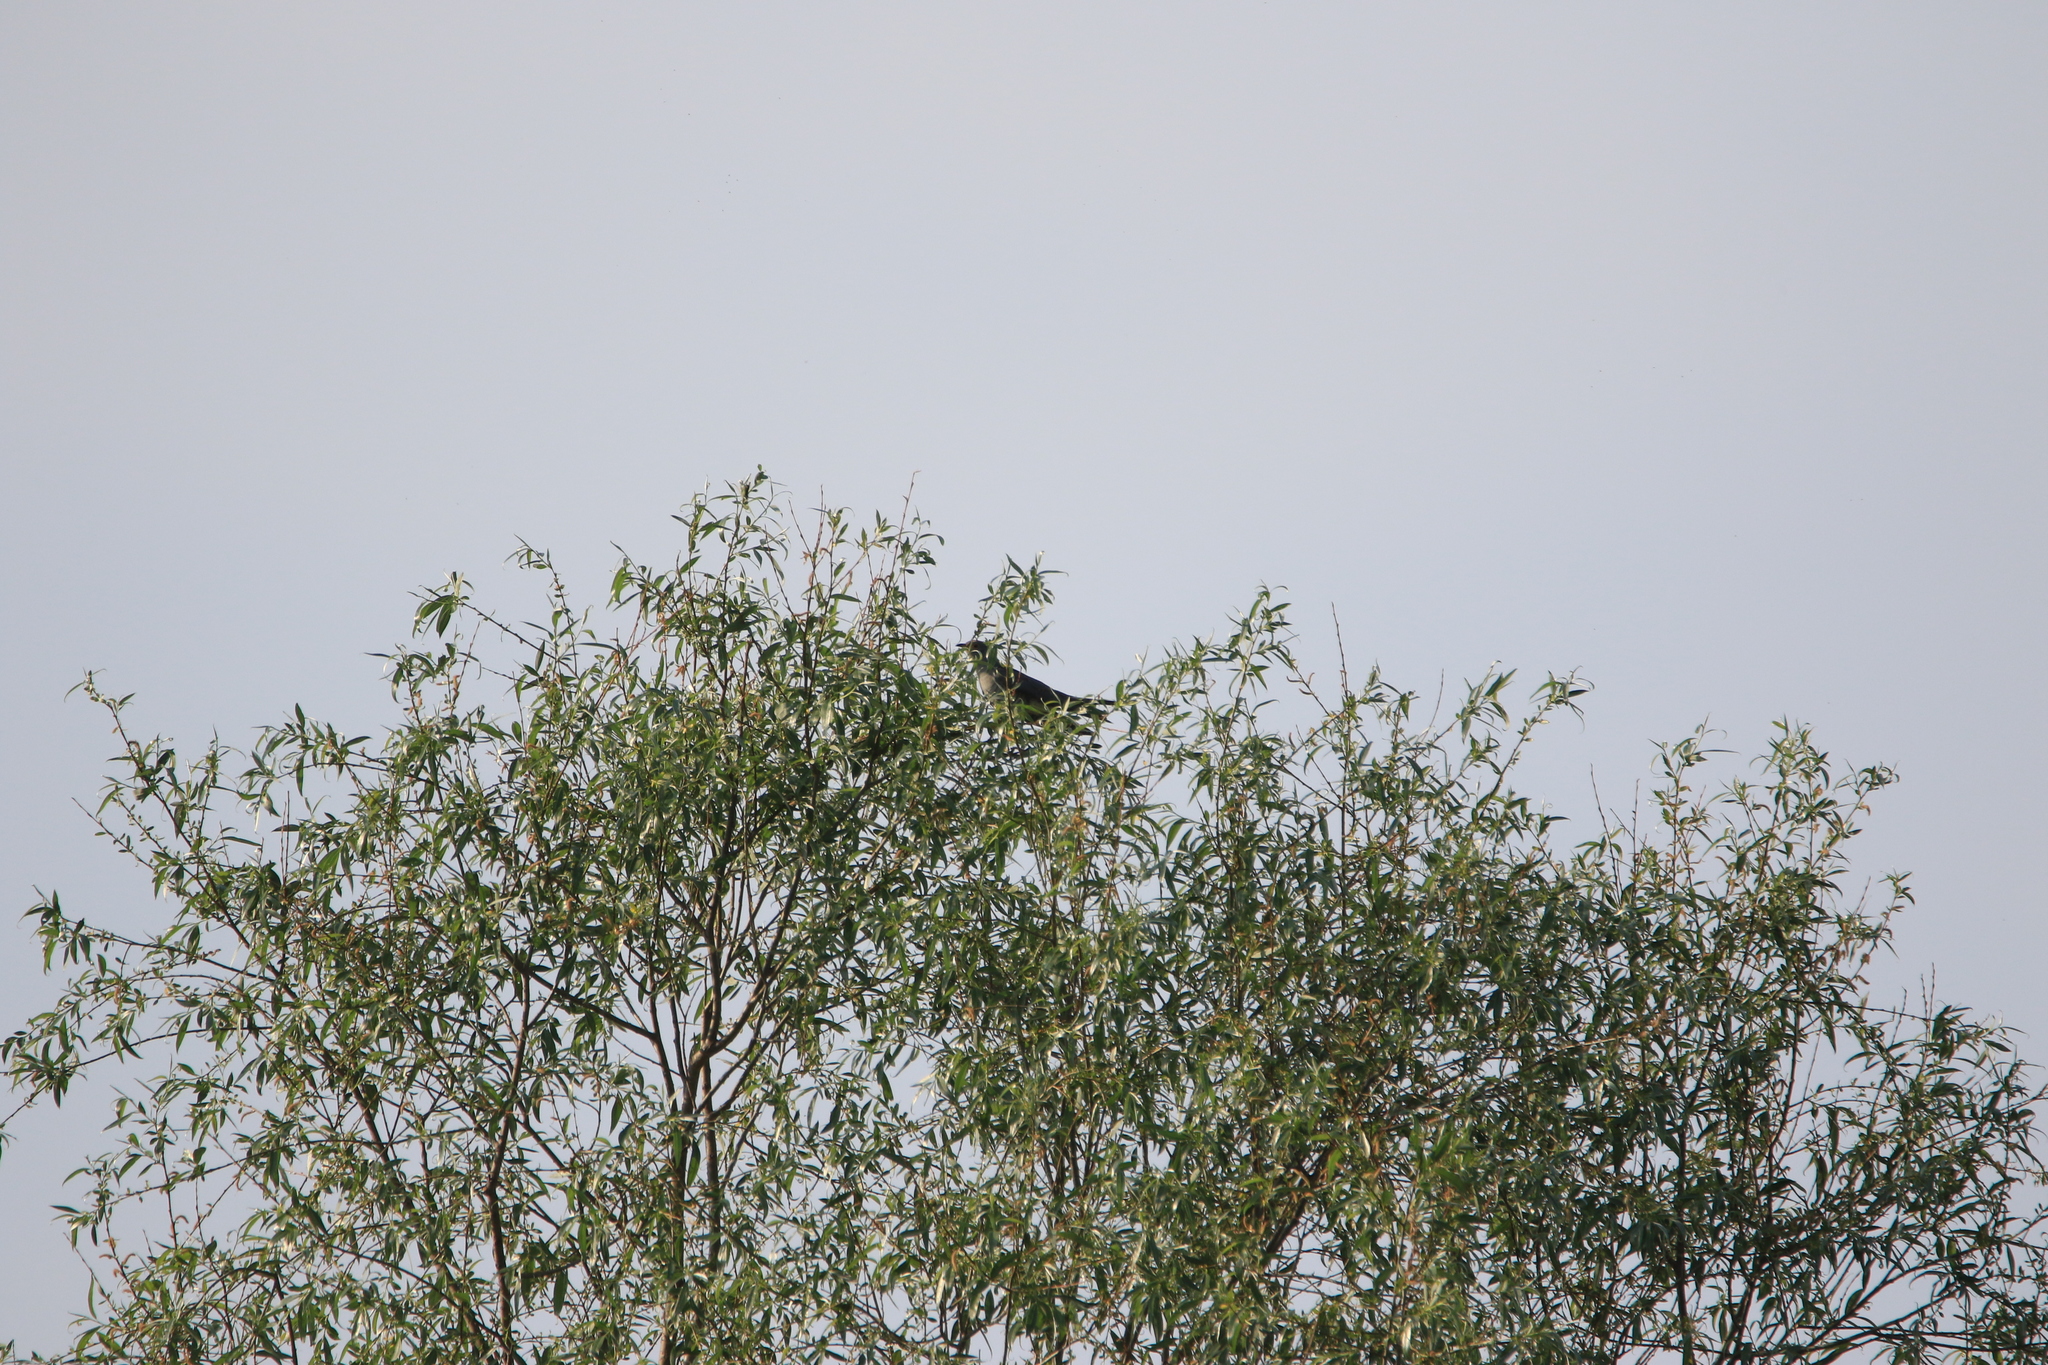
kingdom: Animalia
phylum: Chordata
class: Aves
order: Cuculiformes
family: Cuculidae
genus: Cuculus
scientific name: Cuculus canorus
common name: Common cuckoo
